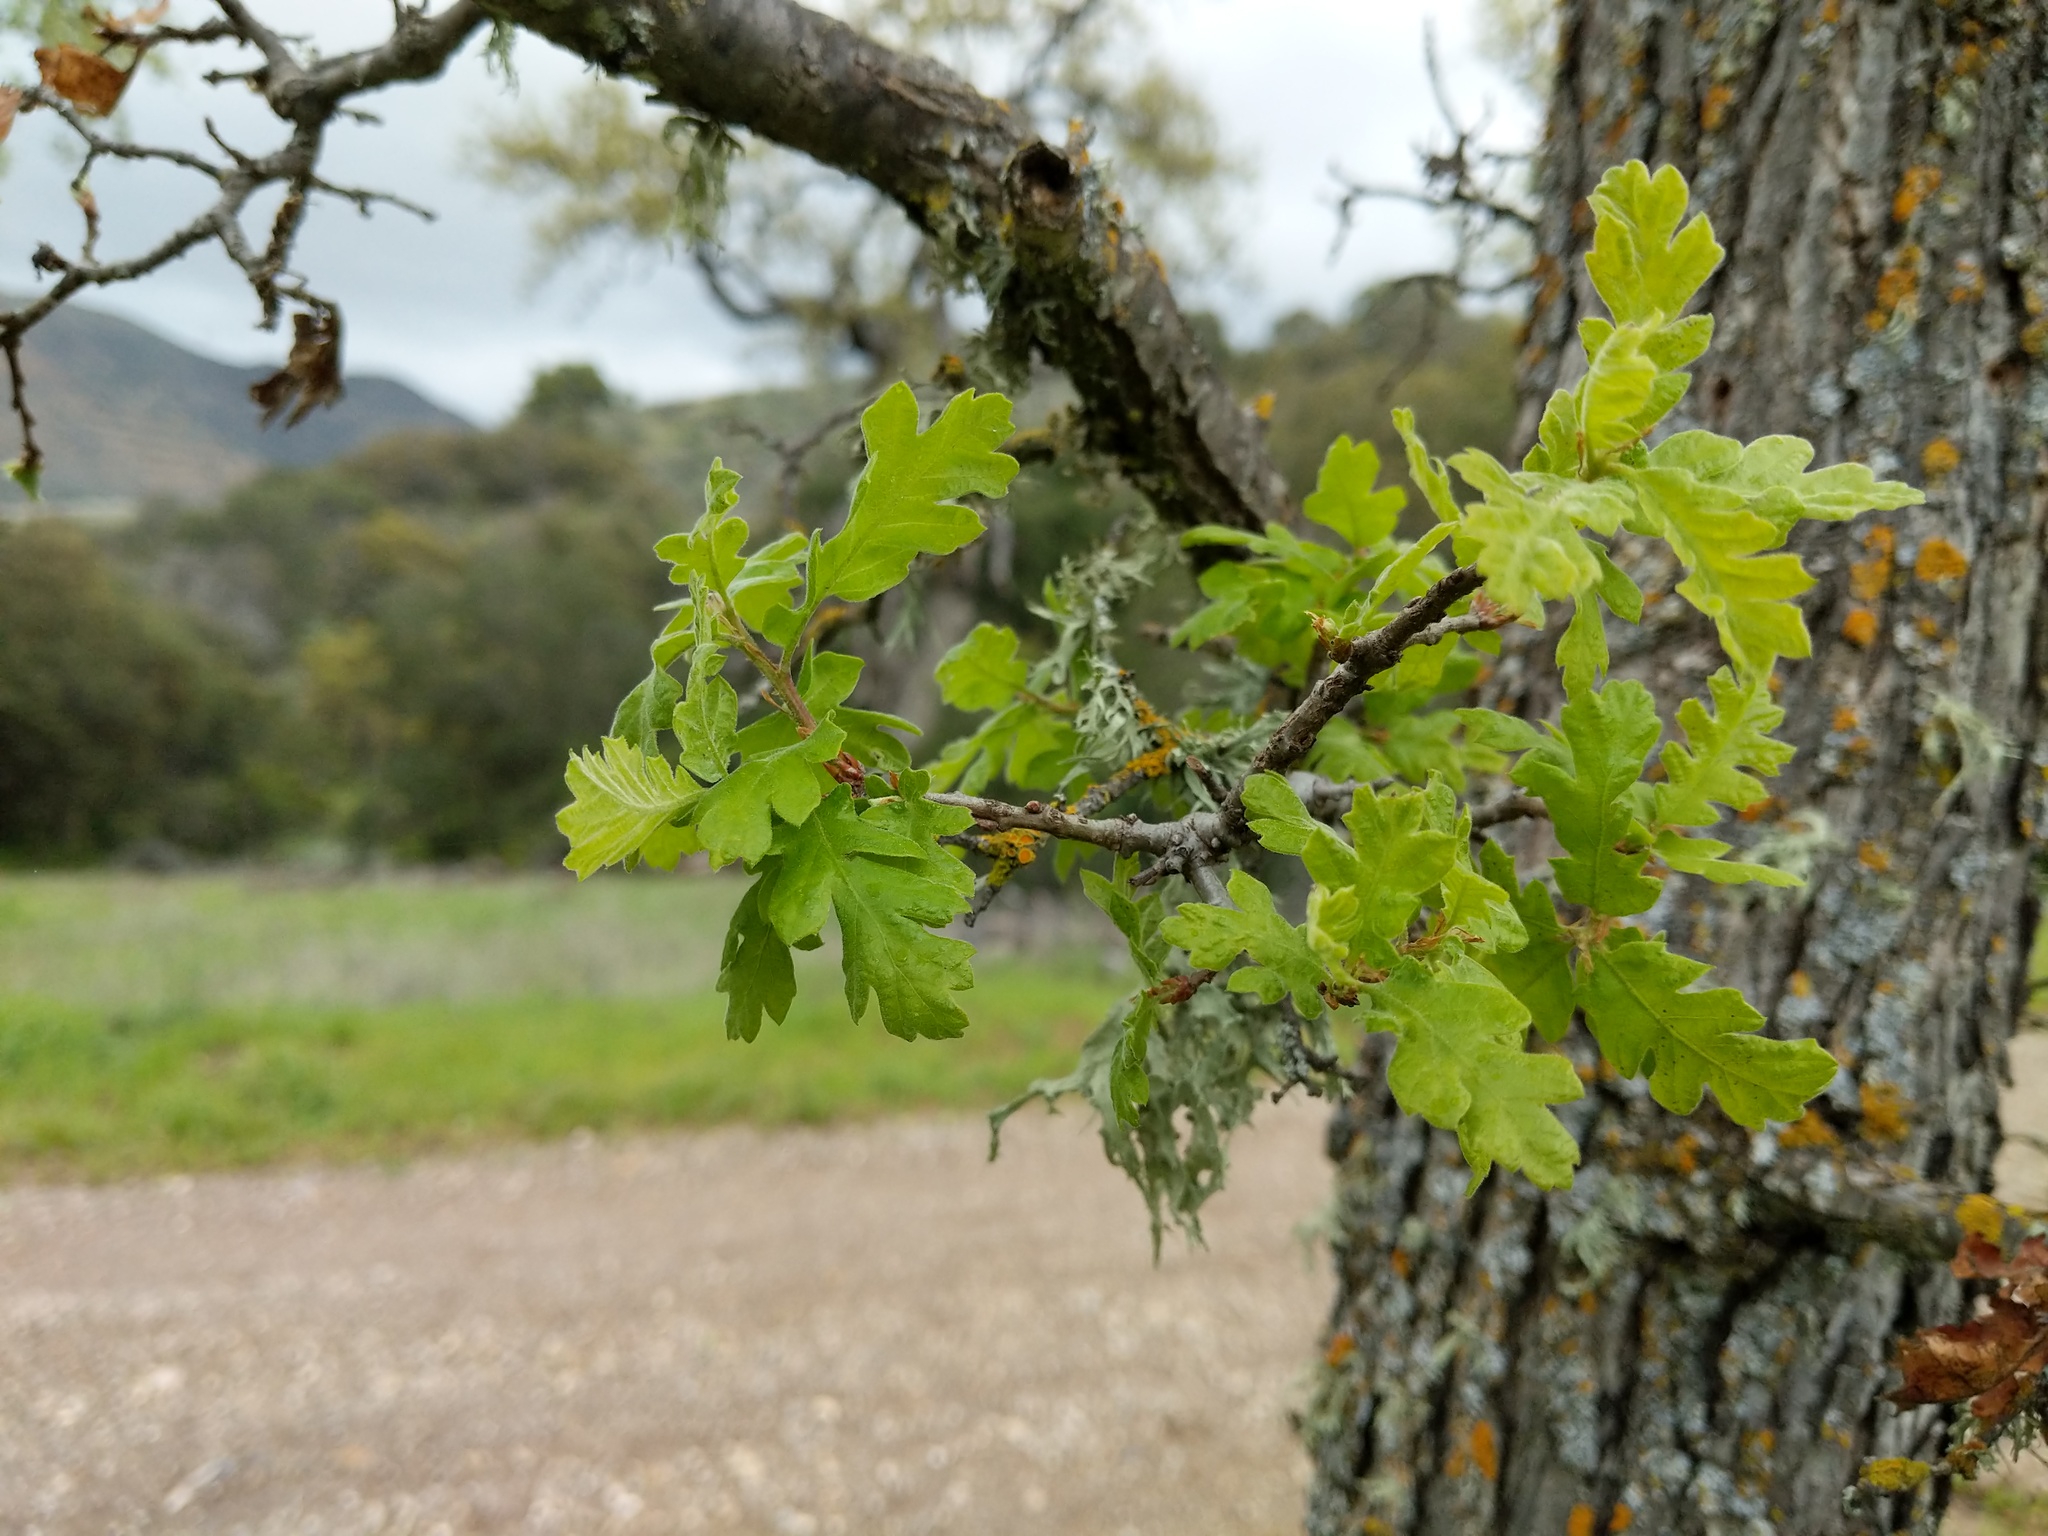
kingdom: Plantae
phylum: Tracheophyta
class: Magnoliopsida
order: Fagales
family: Fagaceae
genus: Quercus
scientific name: Quercus lobata
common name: Valley oak
